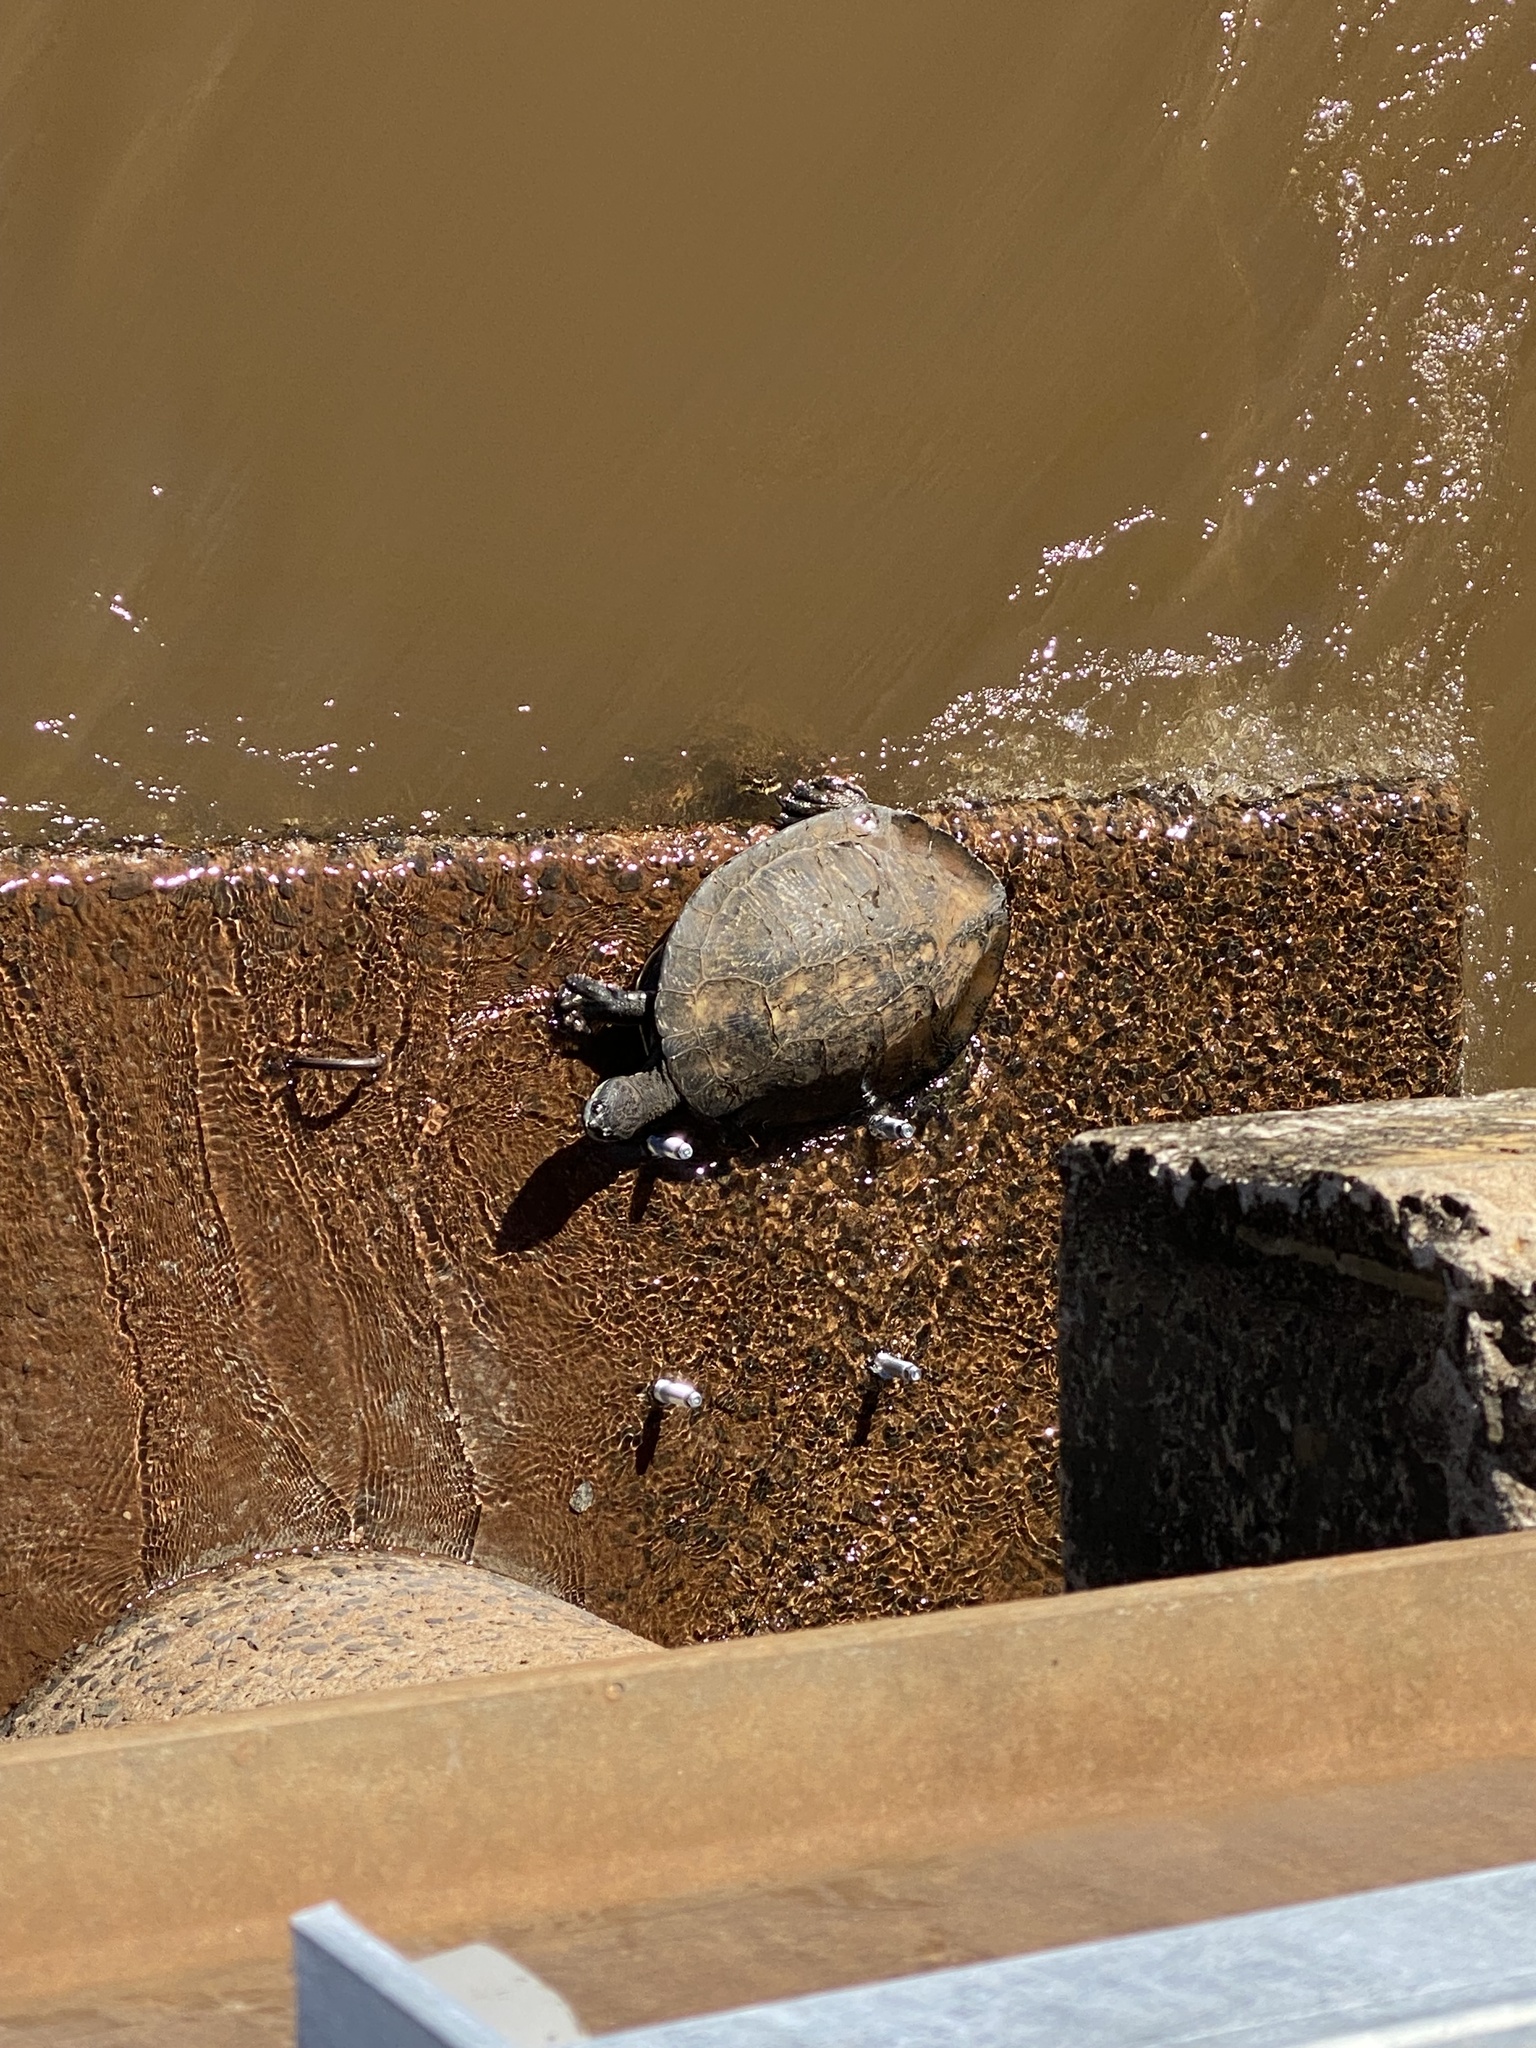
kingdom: Animalia
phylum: Chordata
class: Testudines
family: Chelidae
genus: Phrynops
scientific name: Phrynops williamsi
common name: Williams side-necked turtle
